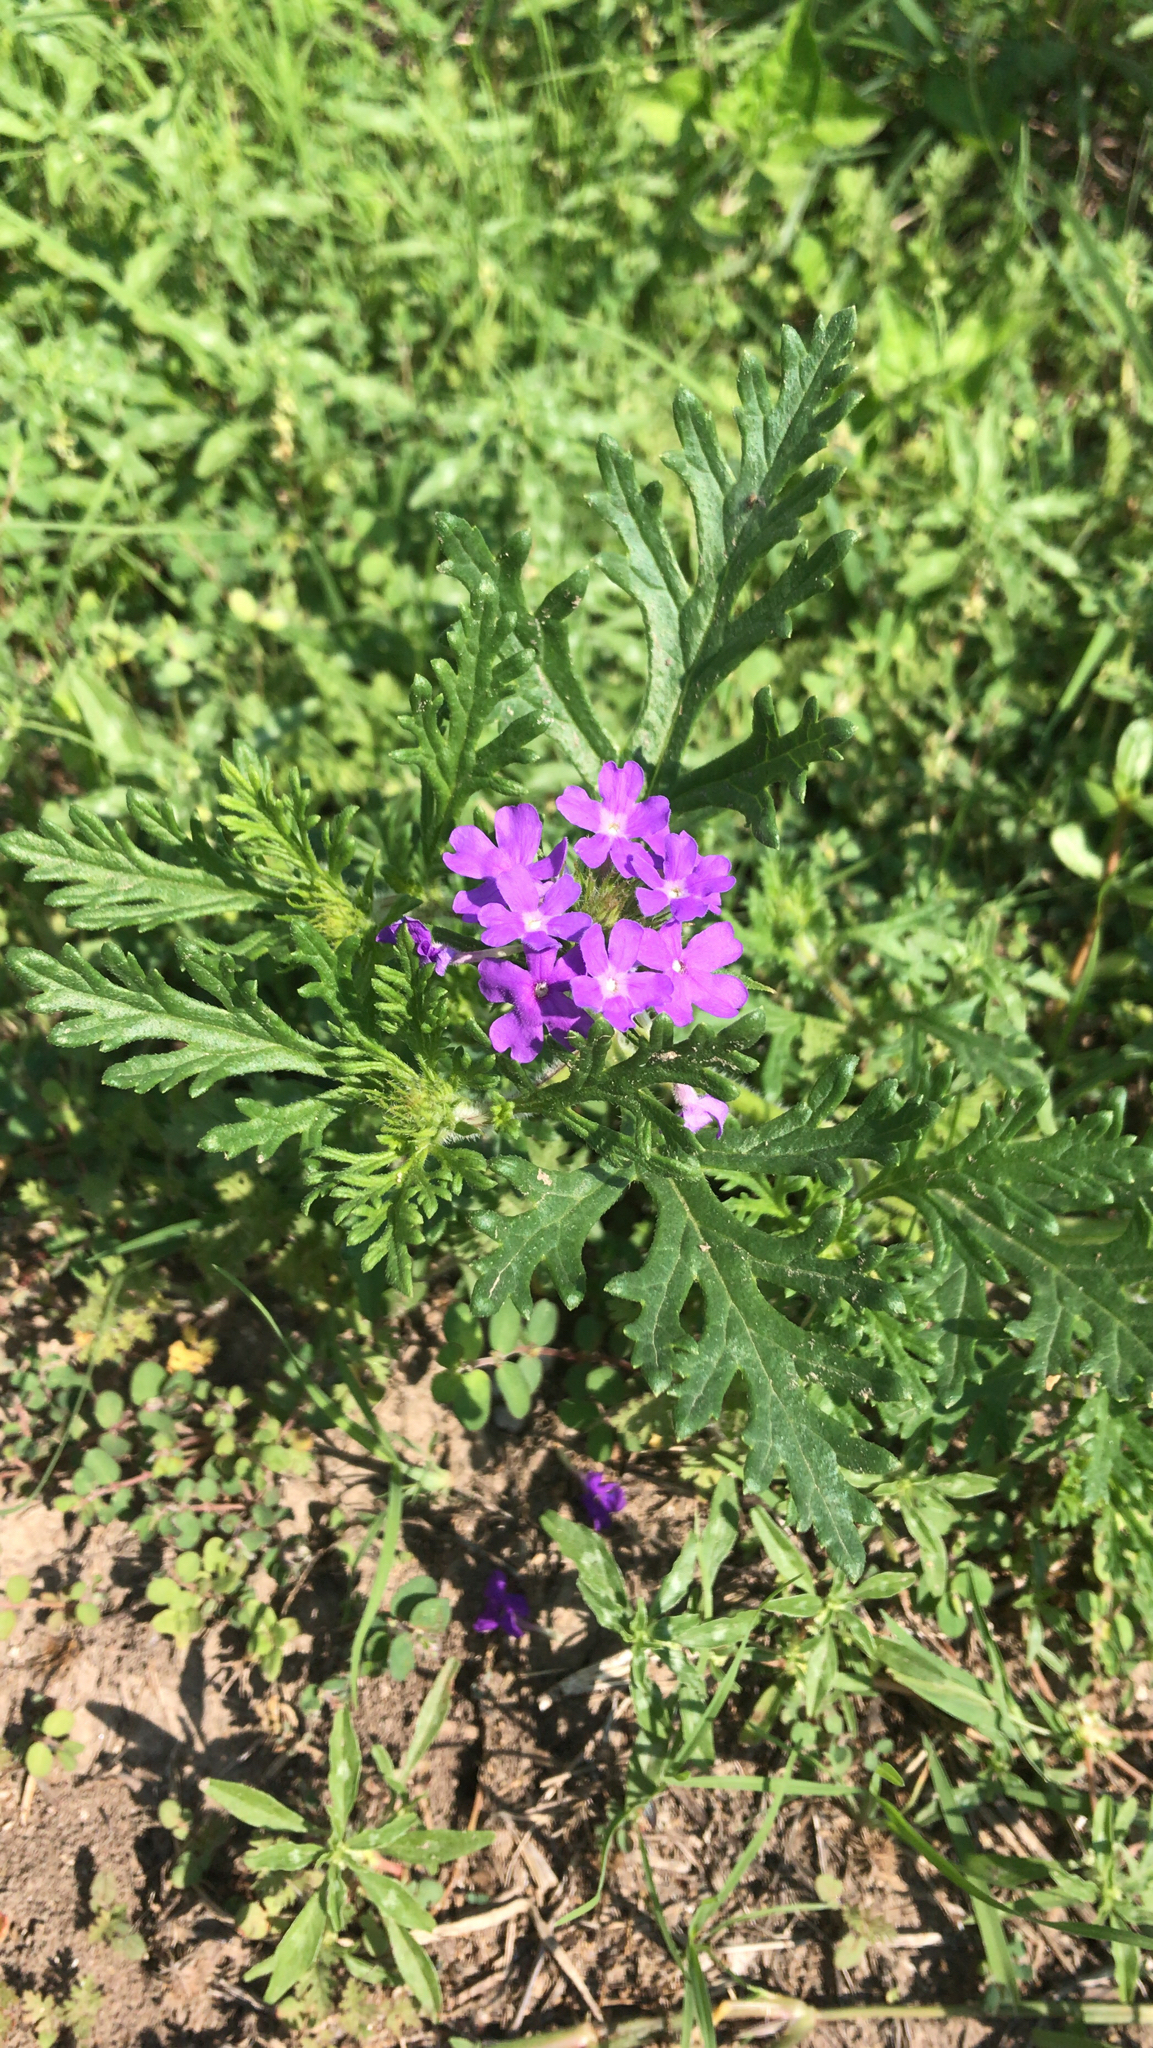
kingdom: Plantae
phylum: Tracheophyta
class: Magnoliopsida
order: Lamiales
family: Verbenaceae
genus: Verbena
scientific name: Verbena bipinnatifida
